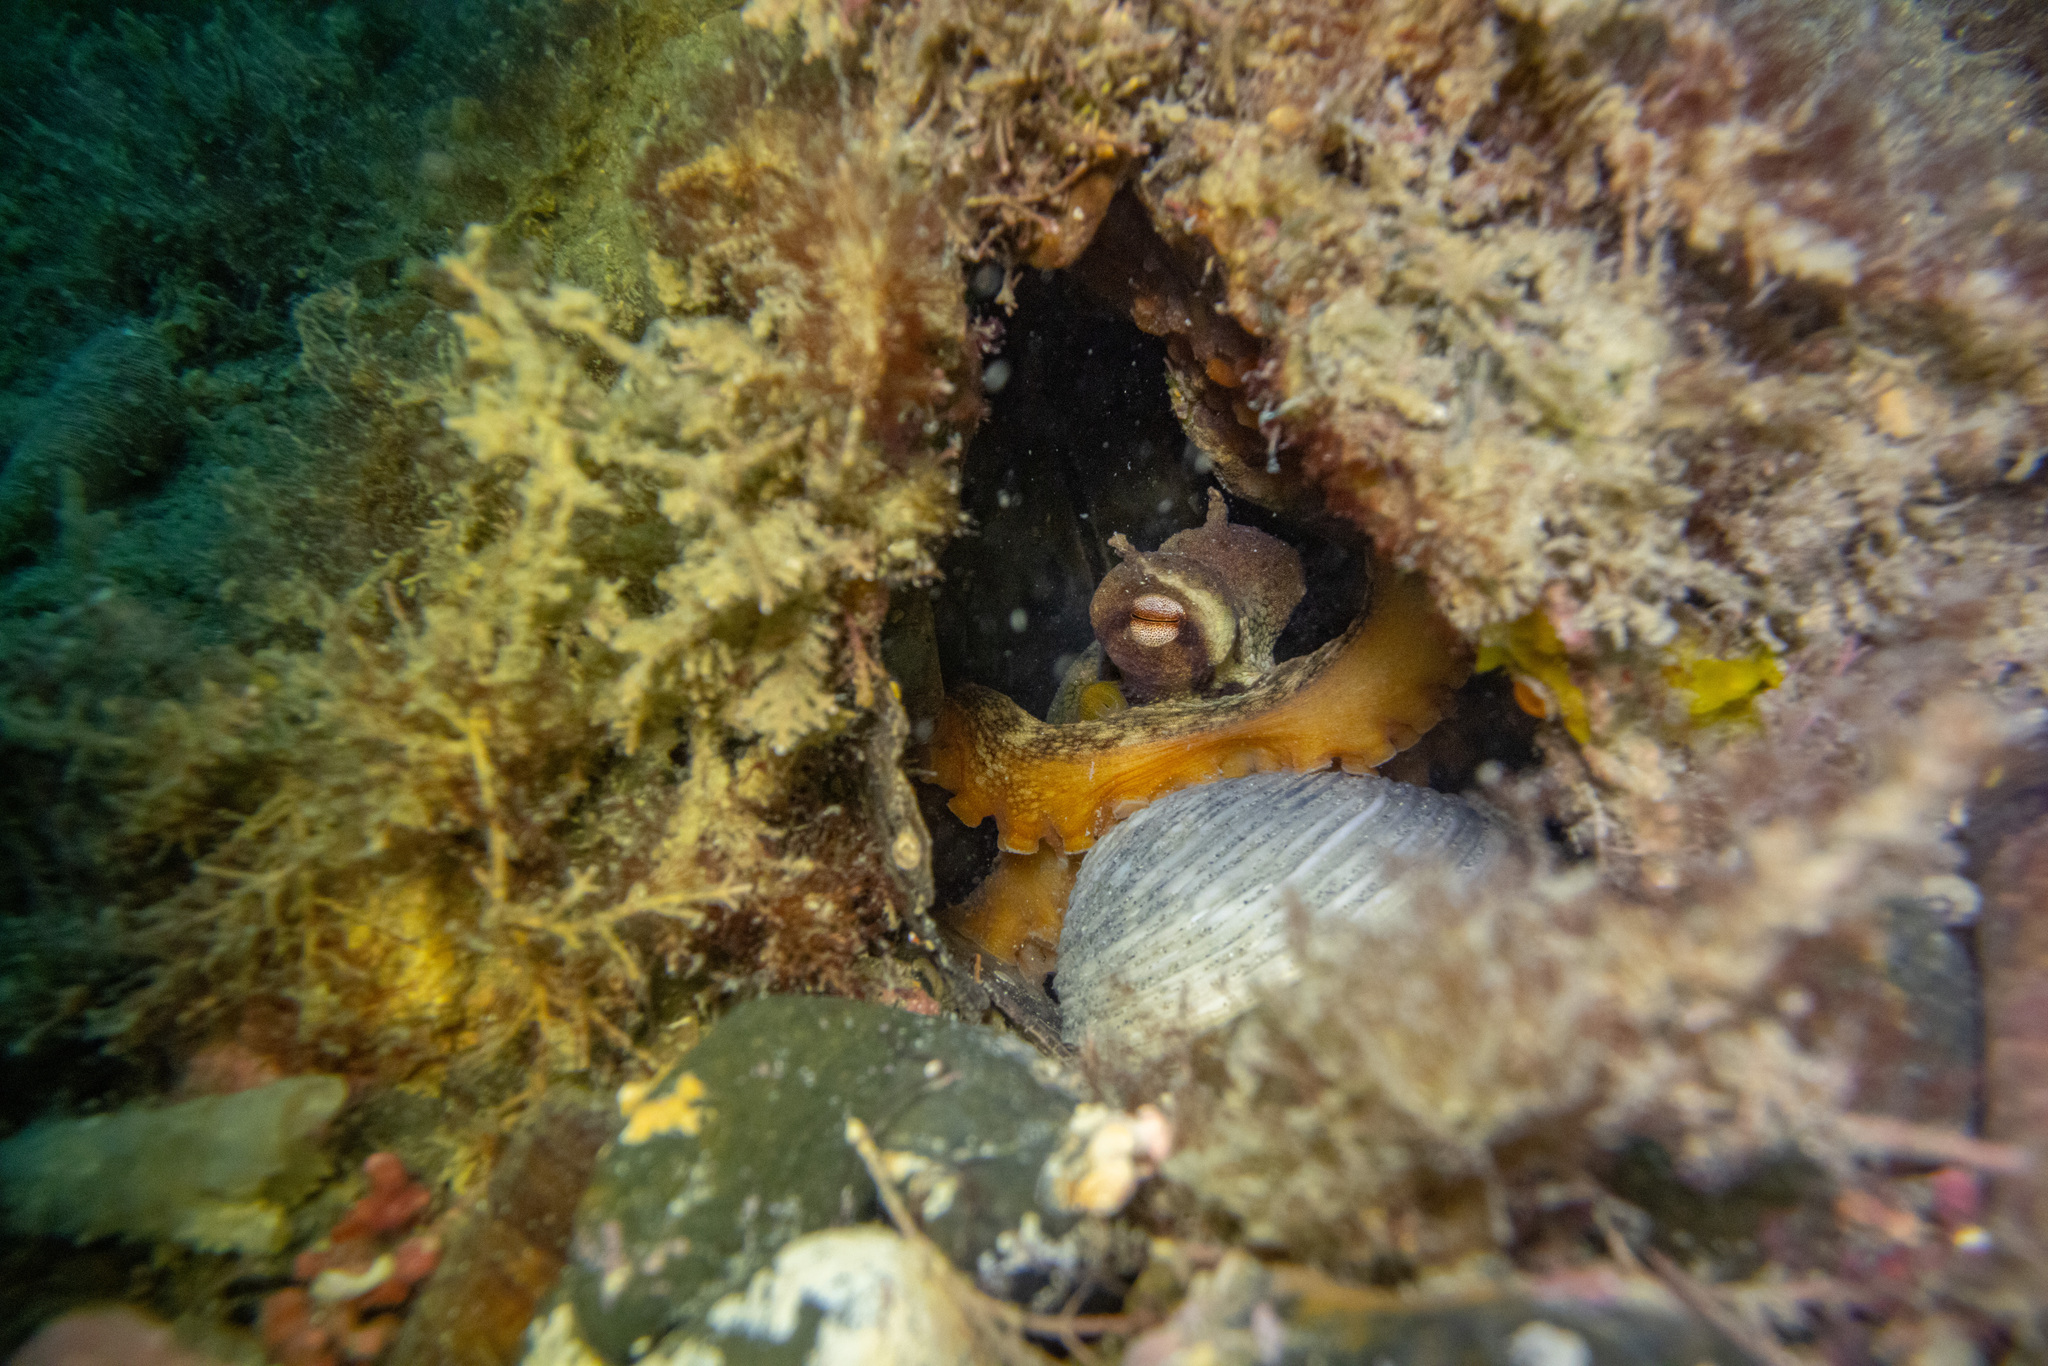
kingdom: Animalia
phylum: Mollusca
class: Cephalopoda
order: Octopoda
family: Octopodidae
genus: Octopus
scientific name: Octopus tetricus
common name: Sydney octopus
